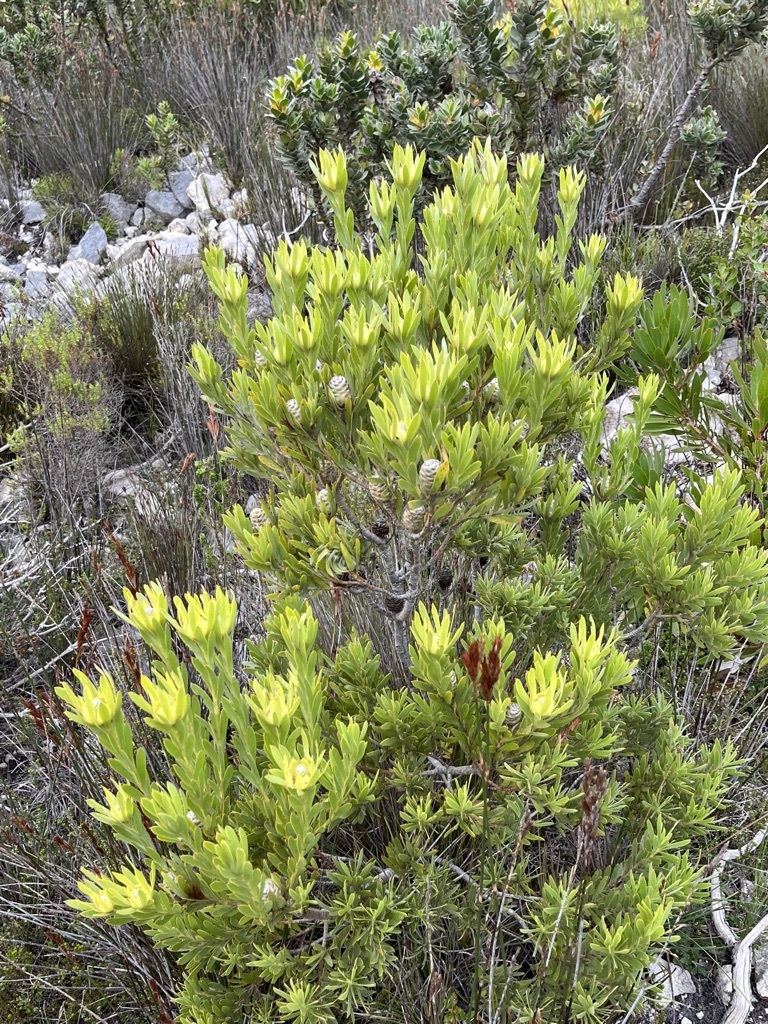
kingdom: Plantae
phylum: Tracheophyta
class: Magnoliopsida
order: Proteales
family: Proteaceae
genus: Leucadendron
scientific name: Leucadendron meridianum
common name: Limestone conebush
